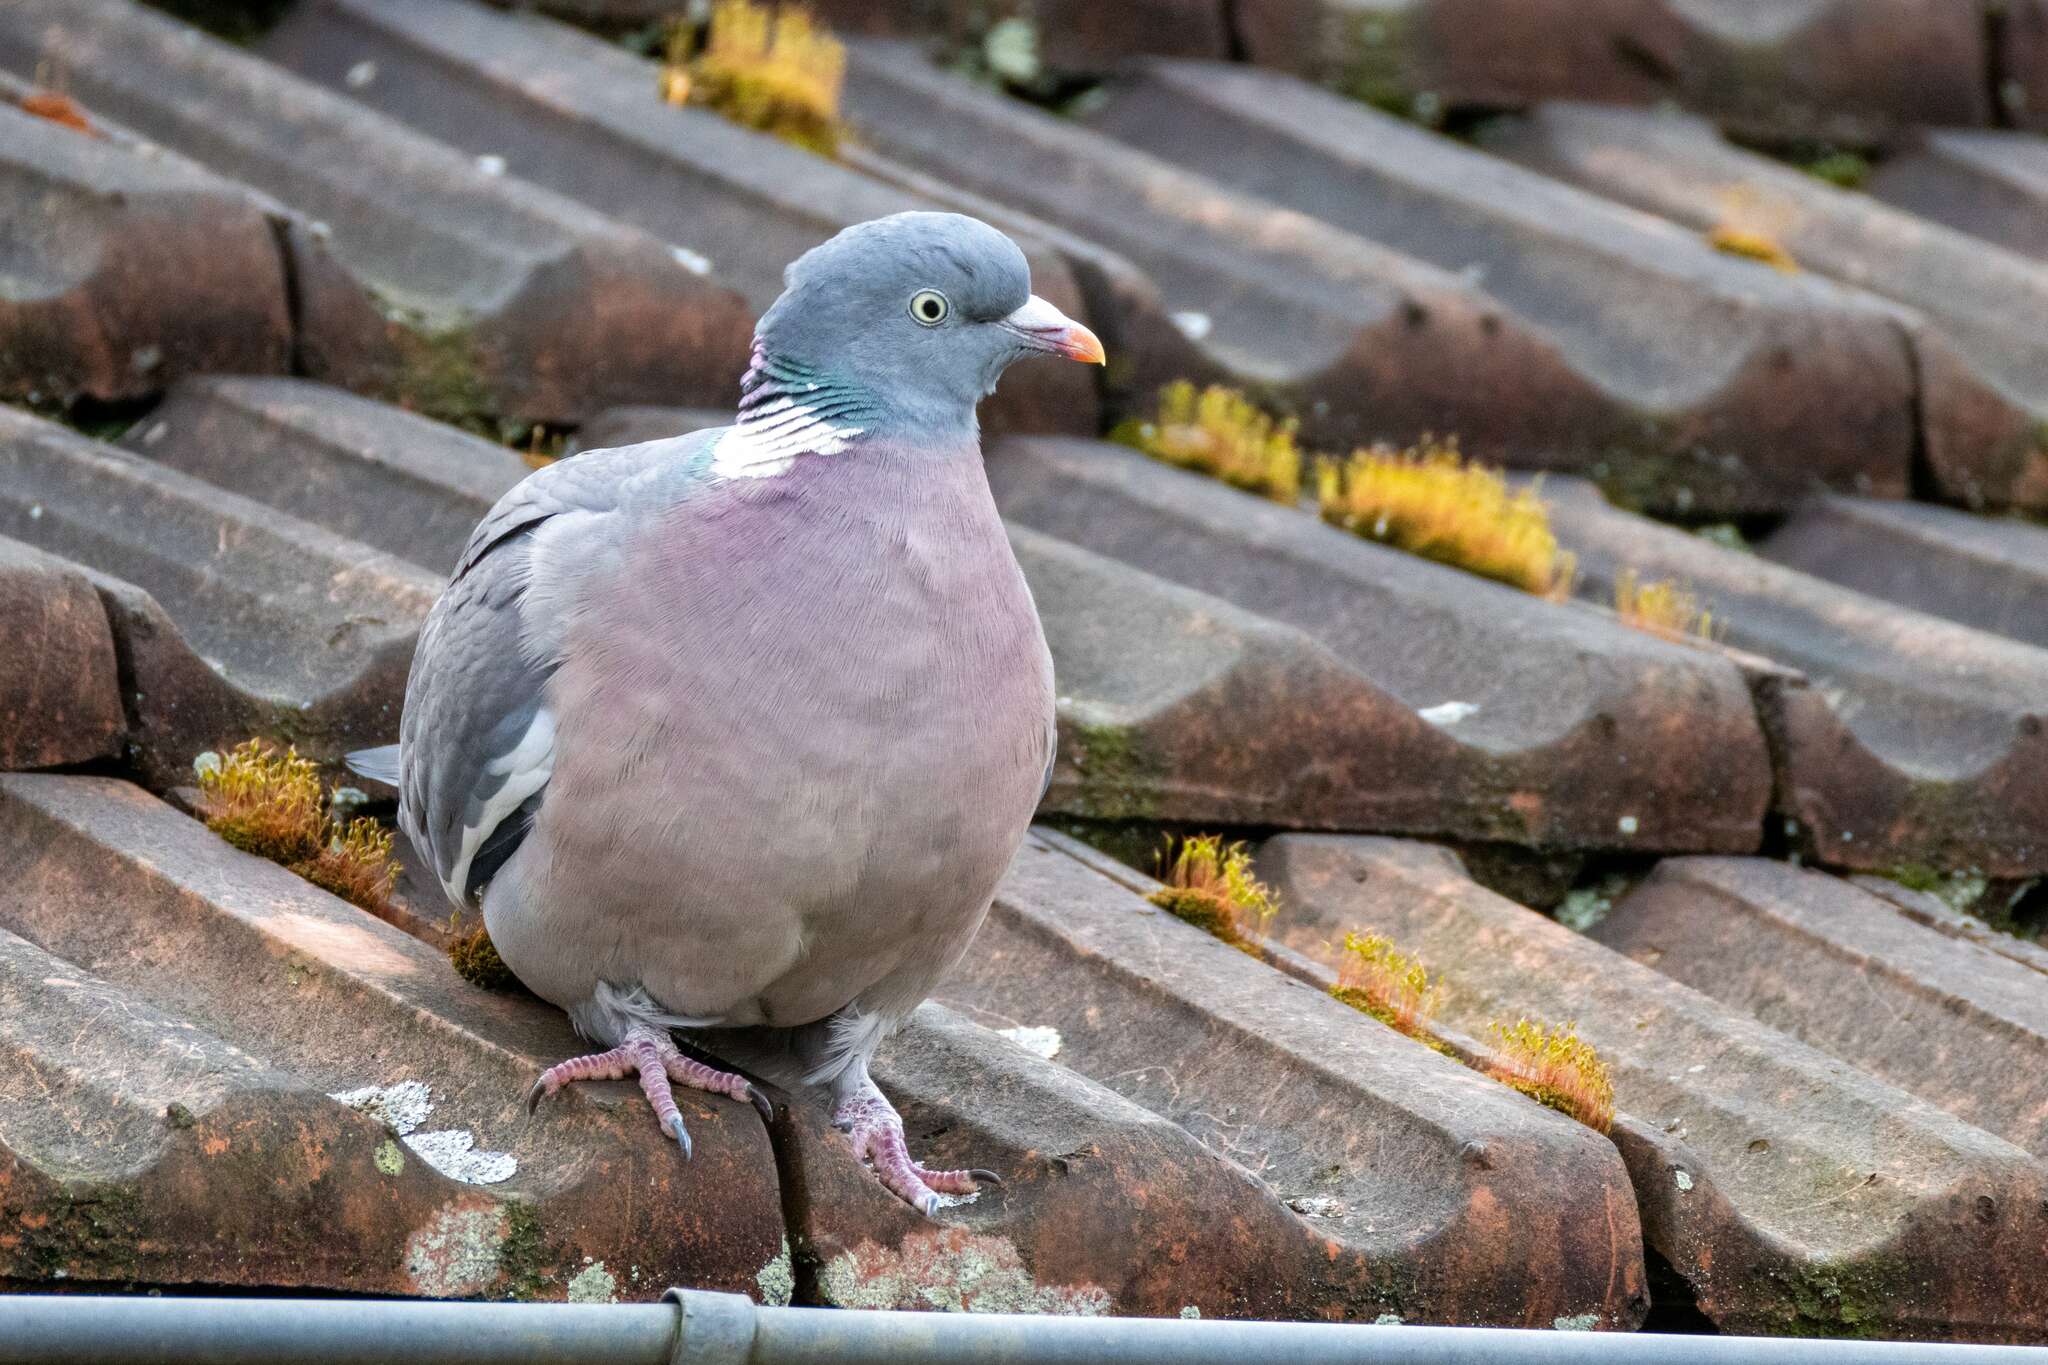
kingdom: Animalia
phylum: Chordata
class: Aves
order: Columbiformes
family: Columbidae
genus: Columba
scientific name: Columba palumbus
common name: Common wood pigeon
